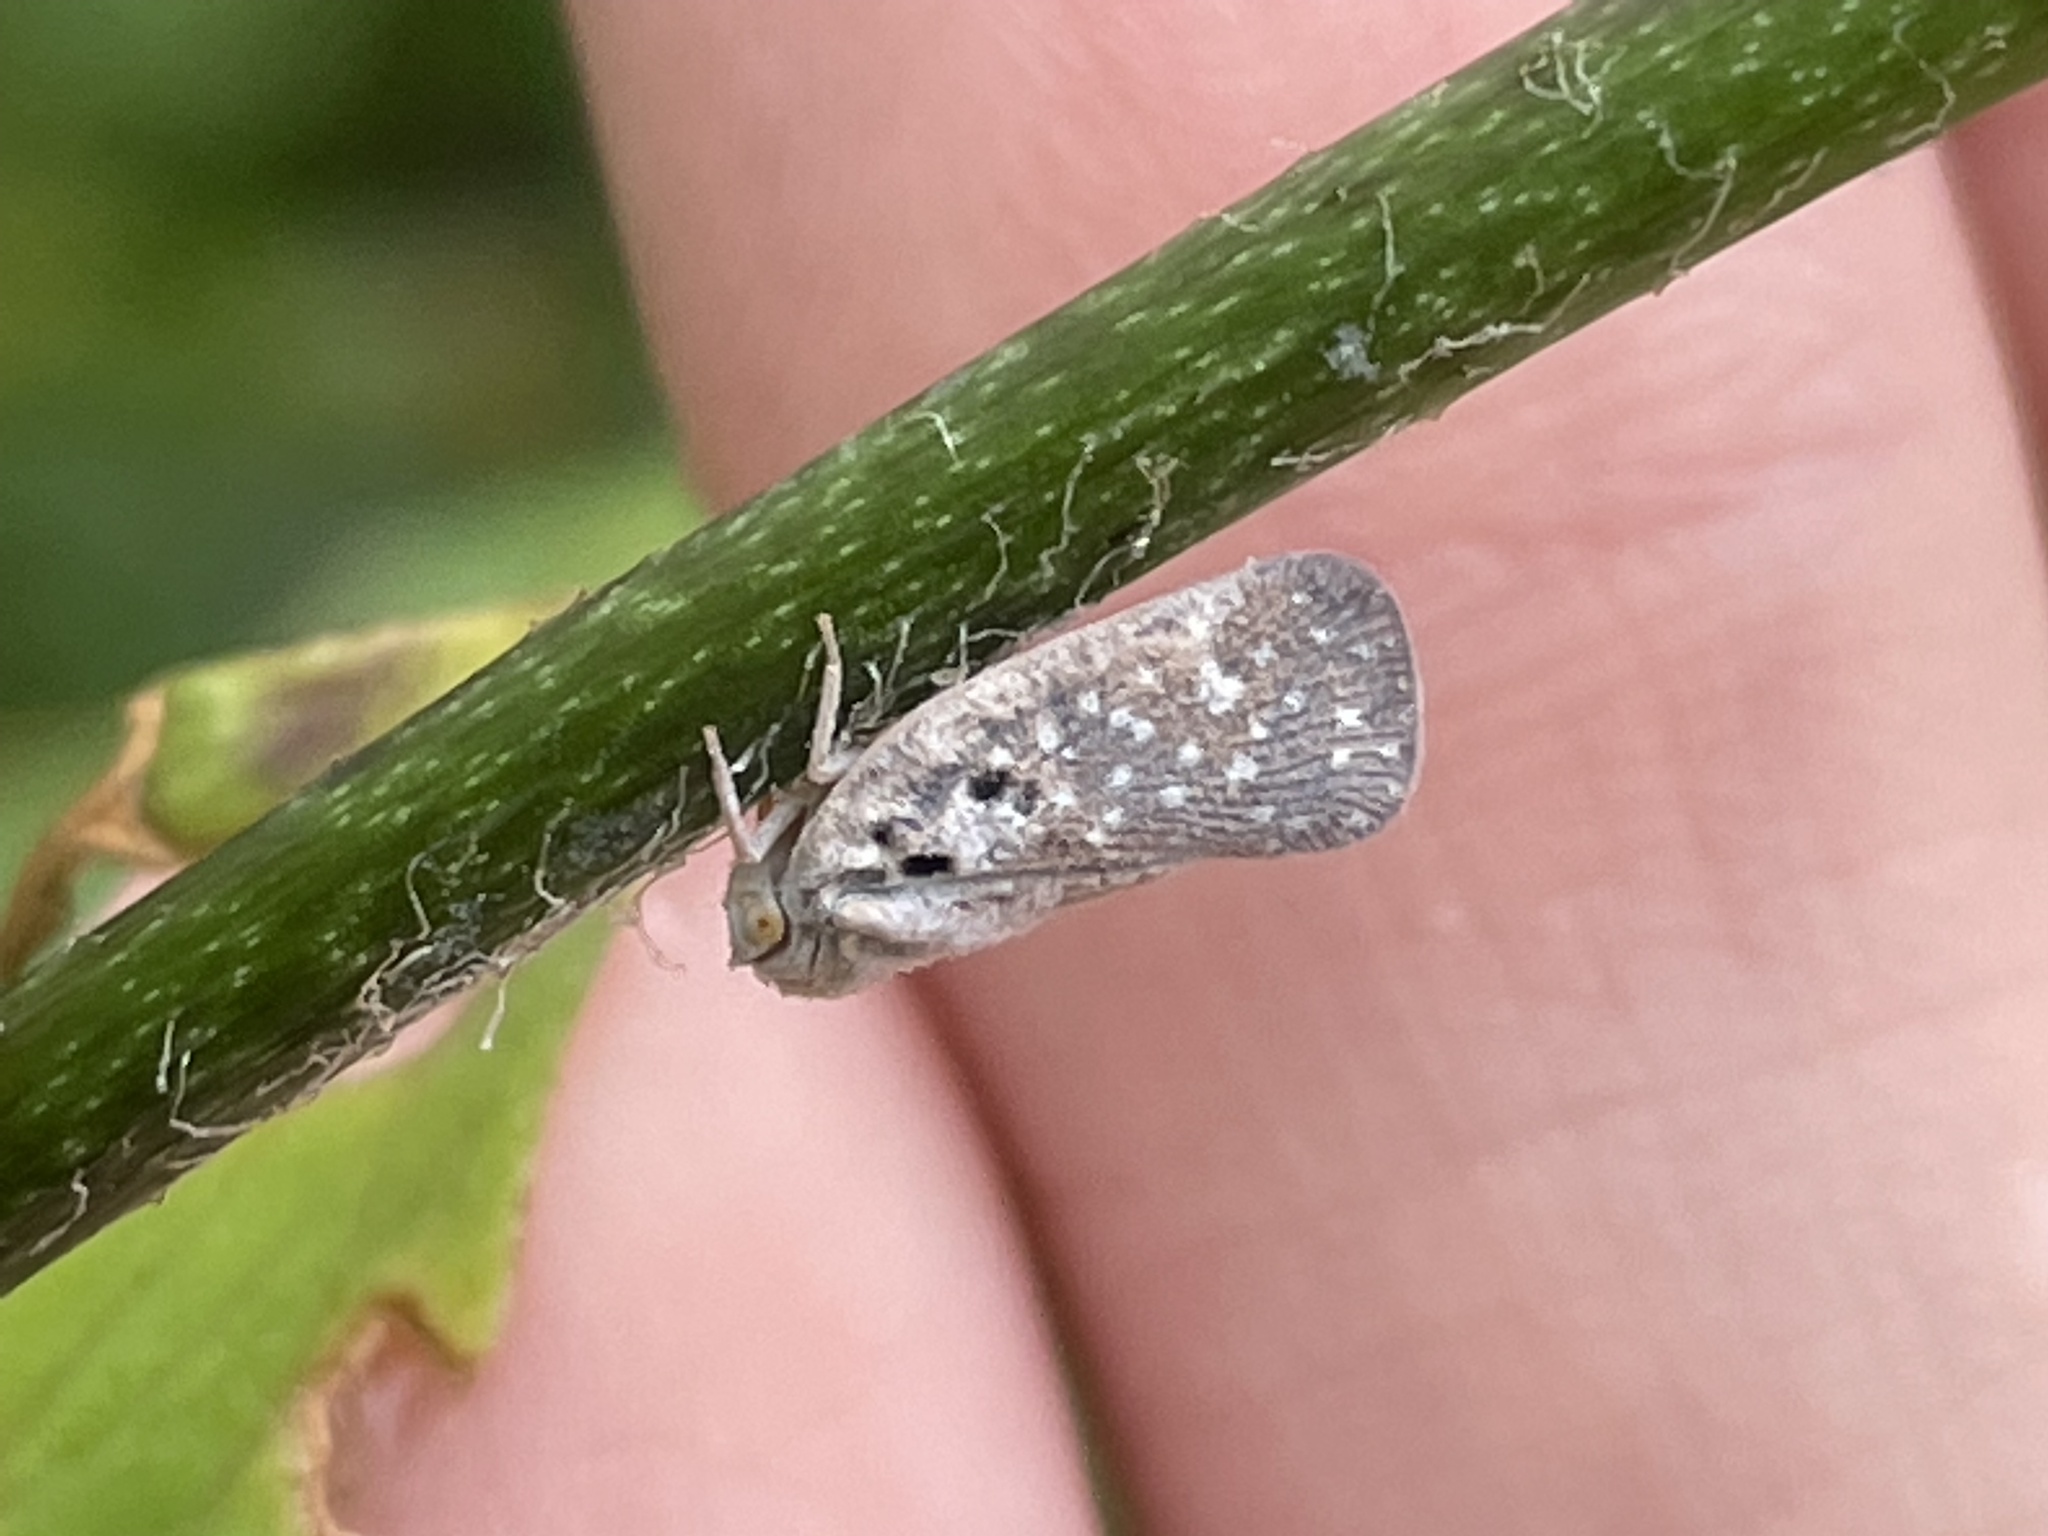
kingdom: Animalia
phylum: Arthropoda
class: Insecta
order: Hemiptera
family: Flatidae
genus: Metcalfa
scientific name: Metcalfa pruinosa
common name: Citrus flatid planthopper
